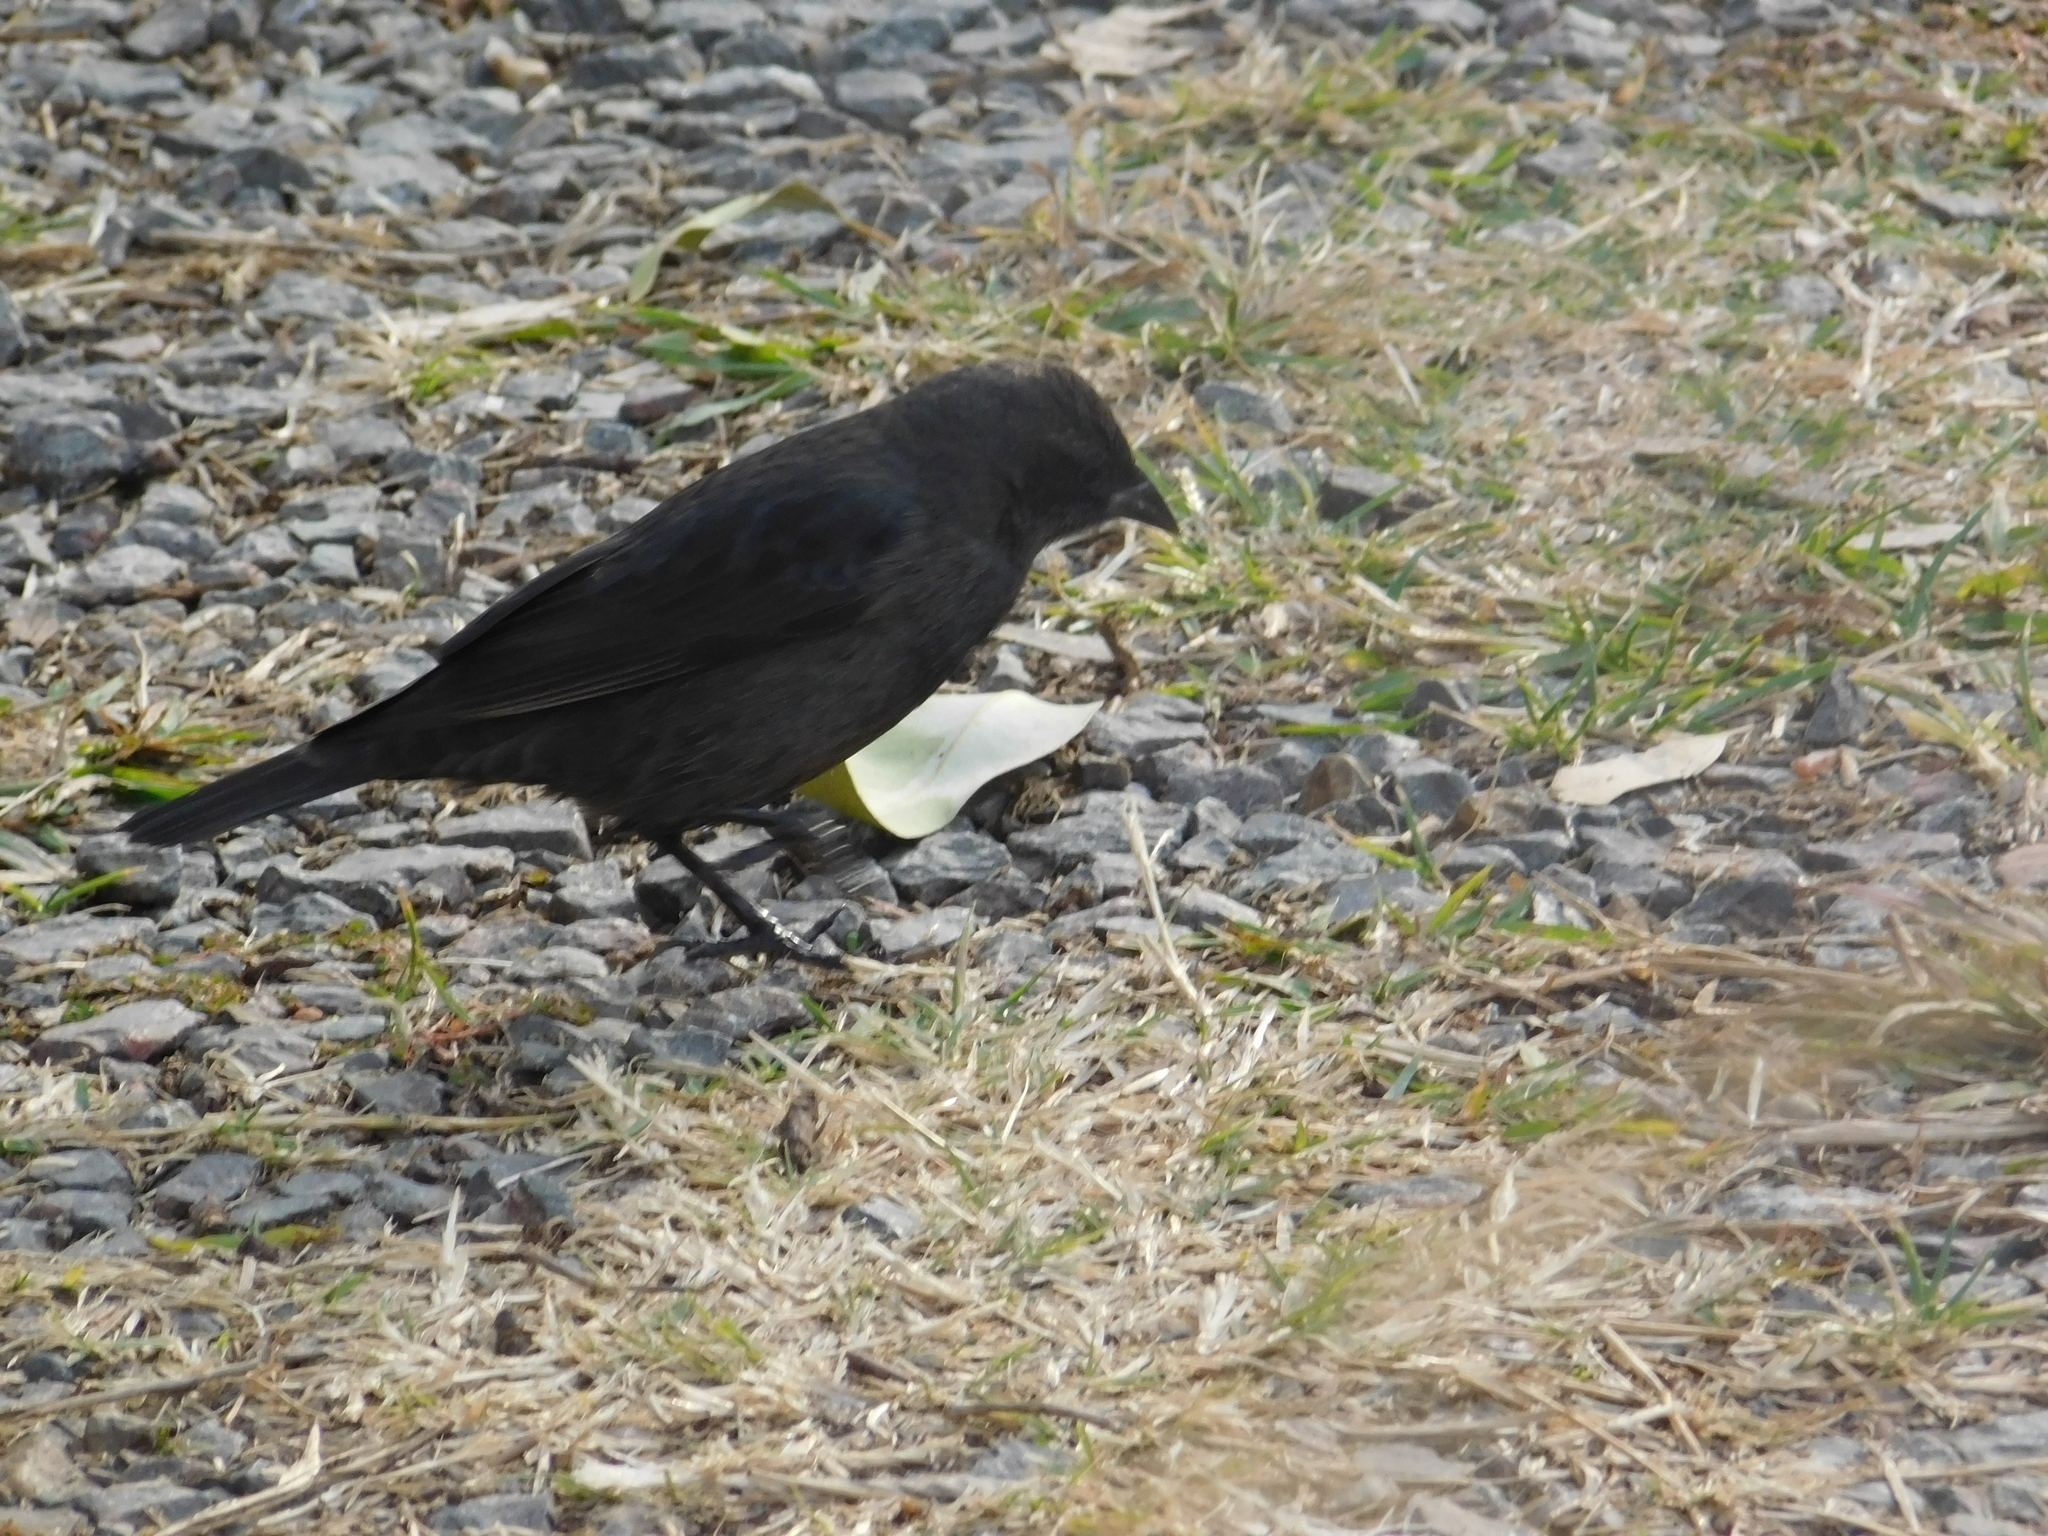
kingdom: Animalia
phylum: Chordata
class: Aves
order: Passeriformes
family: Icteridae
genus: Molothrus
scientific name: Molothrus bonariensis
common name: Shiny cowbird
